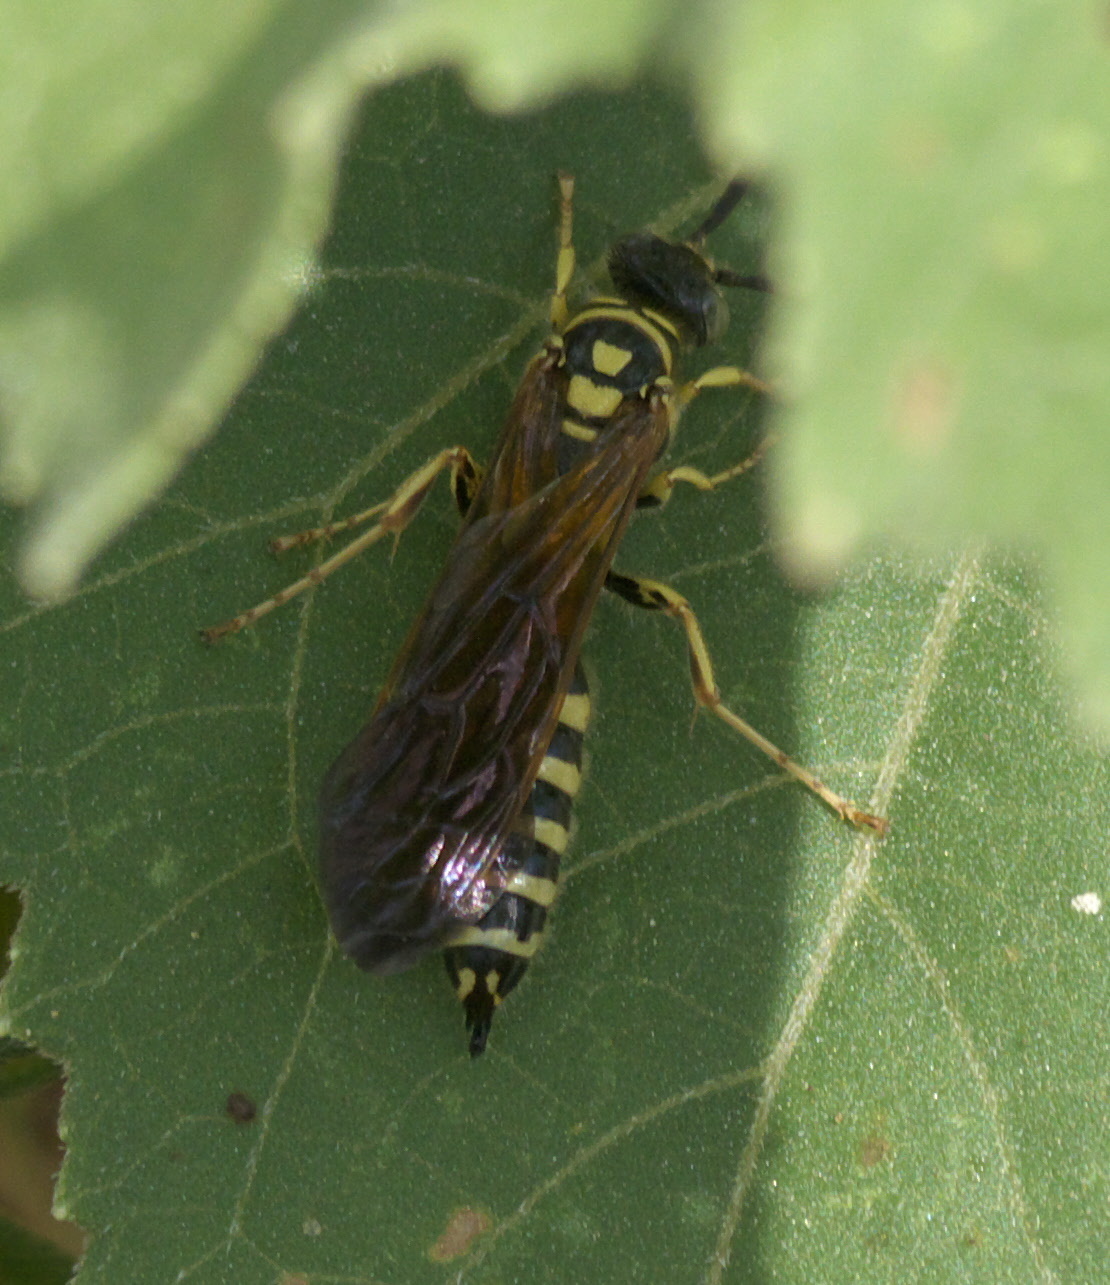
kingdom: Animalia
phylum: Arthropoda
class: Insecta
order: Hymenoptera
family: Tiphiidae
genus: Myzinum
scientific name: Myzinum quinquecinctum
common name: Five-banded thynnid wasp
